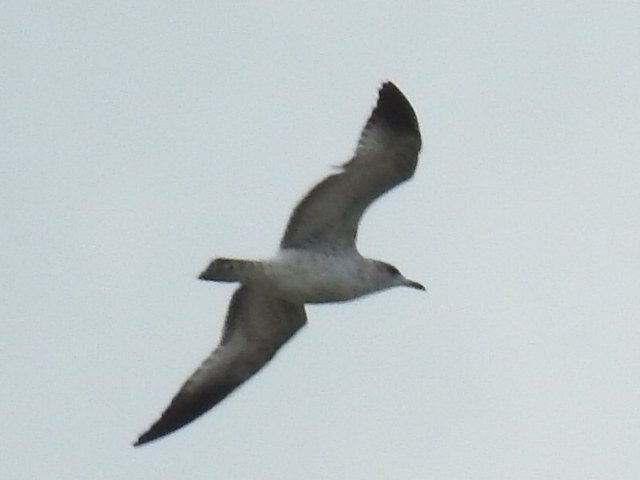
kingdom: Animalia
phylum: Chordata
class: Aves
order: Charadriiformes
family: Laridae
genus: Larus
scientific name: Larus delawarensis
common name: Ring-billed gull
